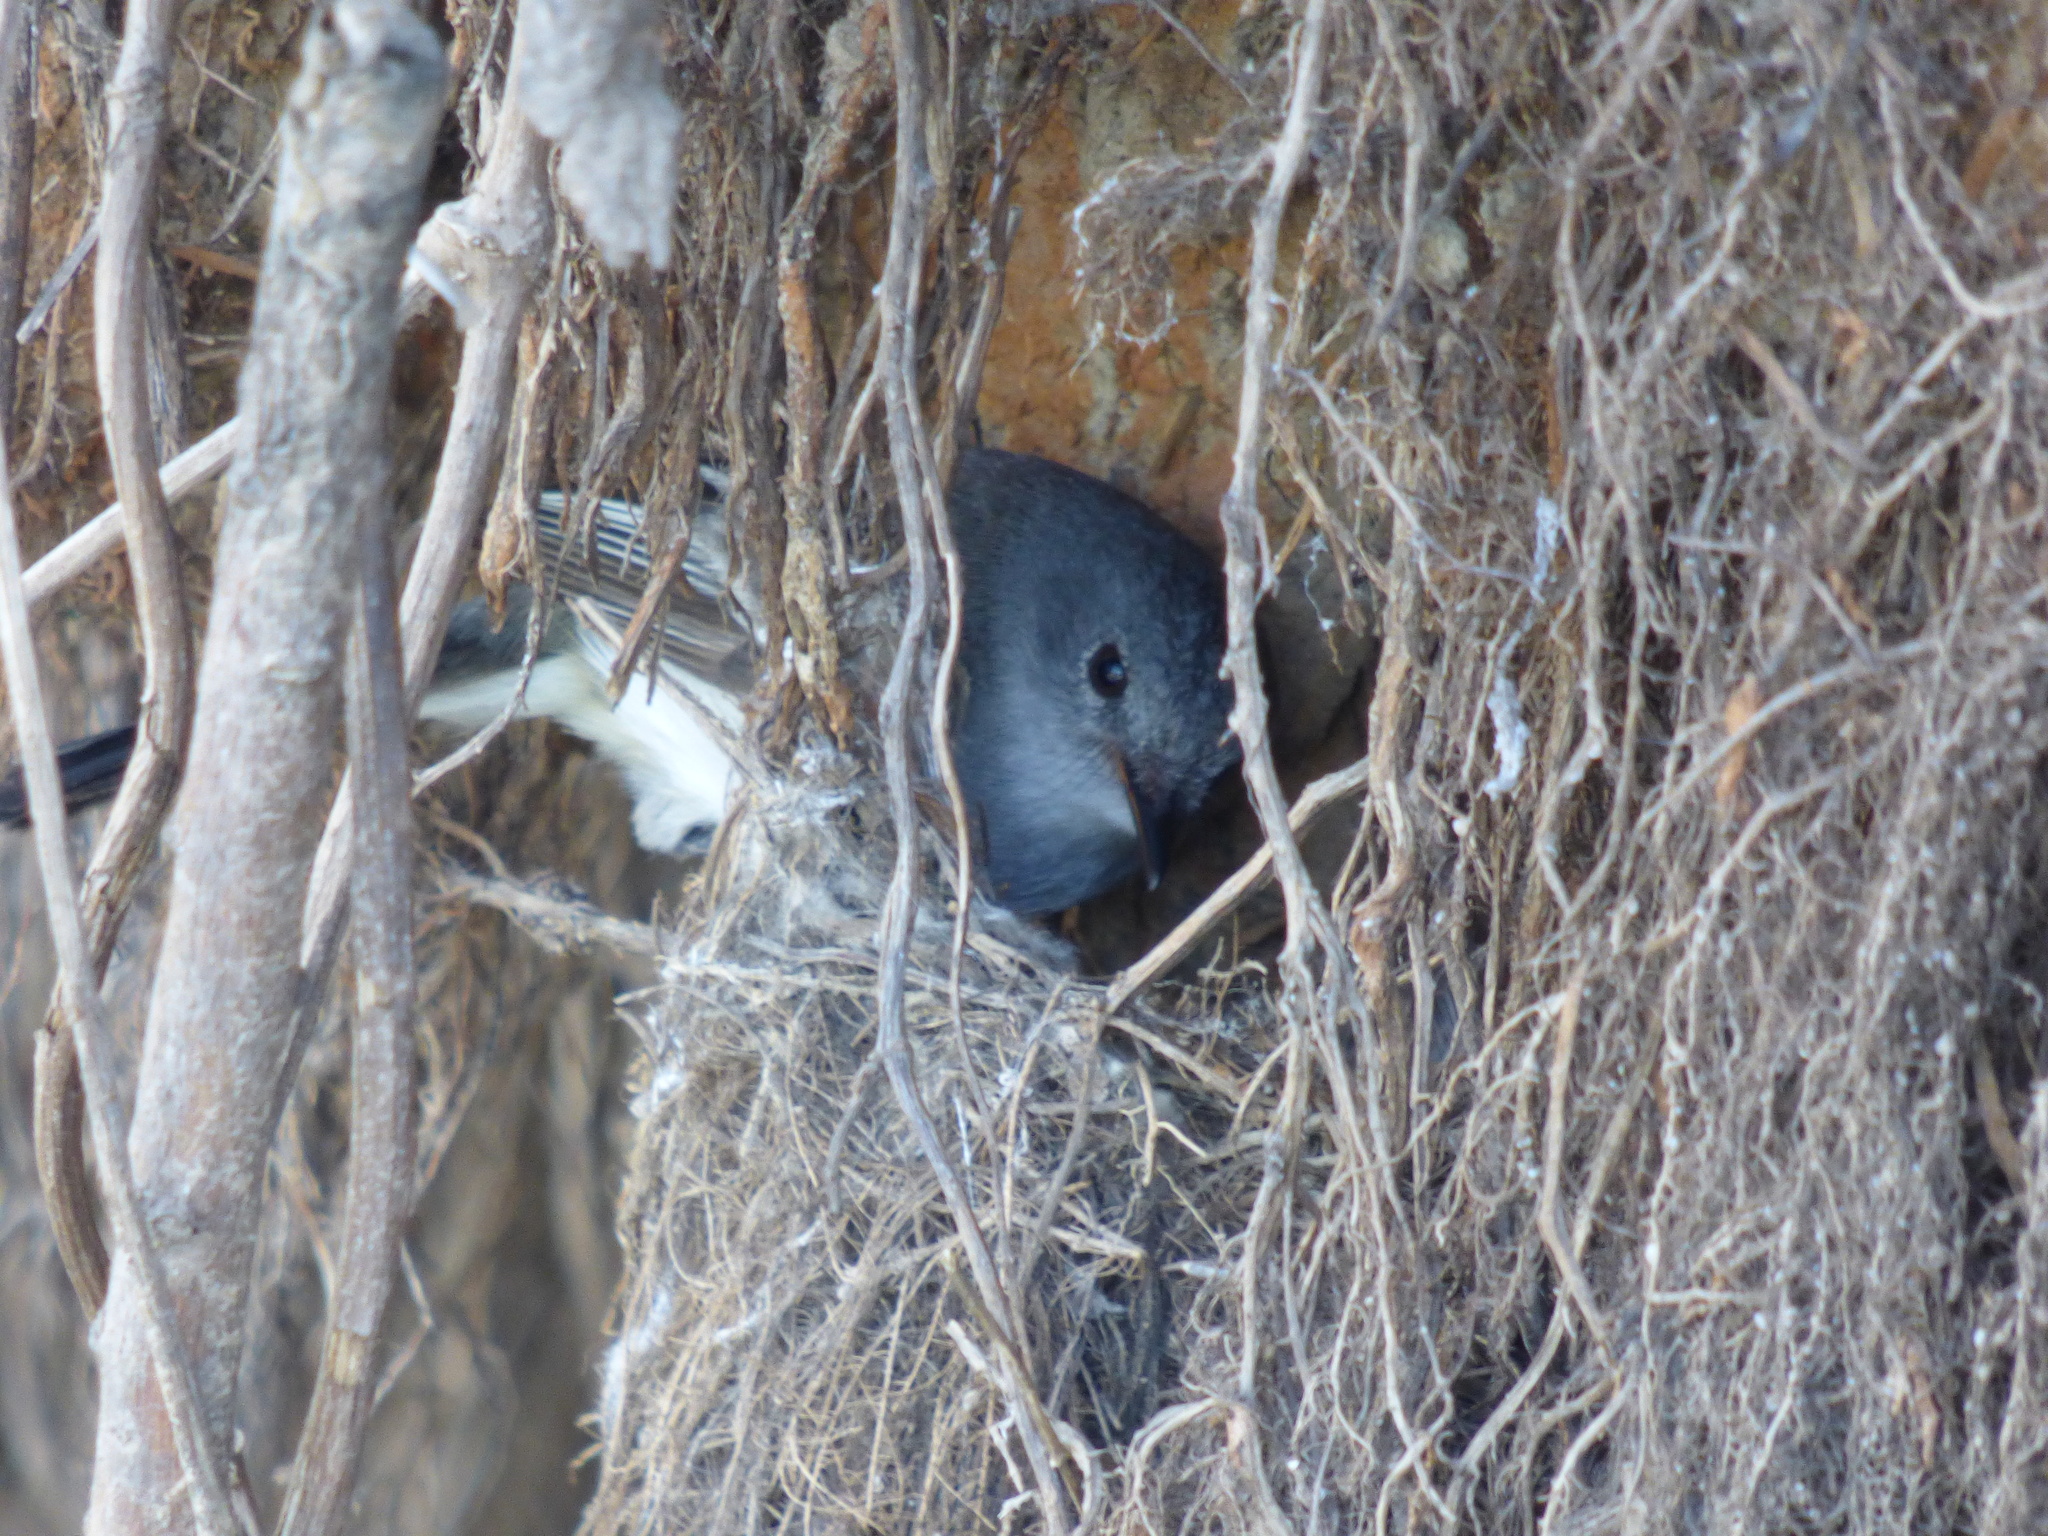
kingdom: Animalia
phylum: Chordata
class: Aves
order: Passeriformes
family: Tyrannidae
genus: Serpophaga
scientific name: Serpophaga nigricans
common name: Sooty tyrannulet
